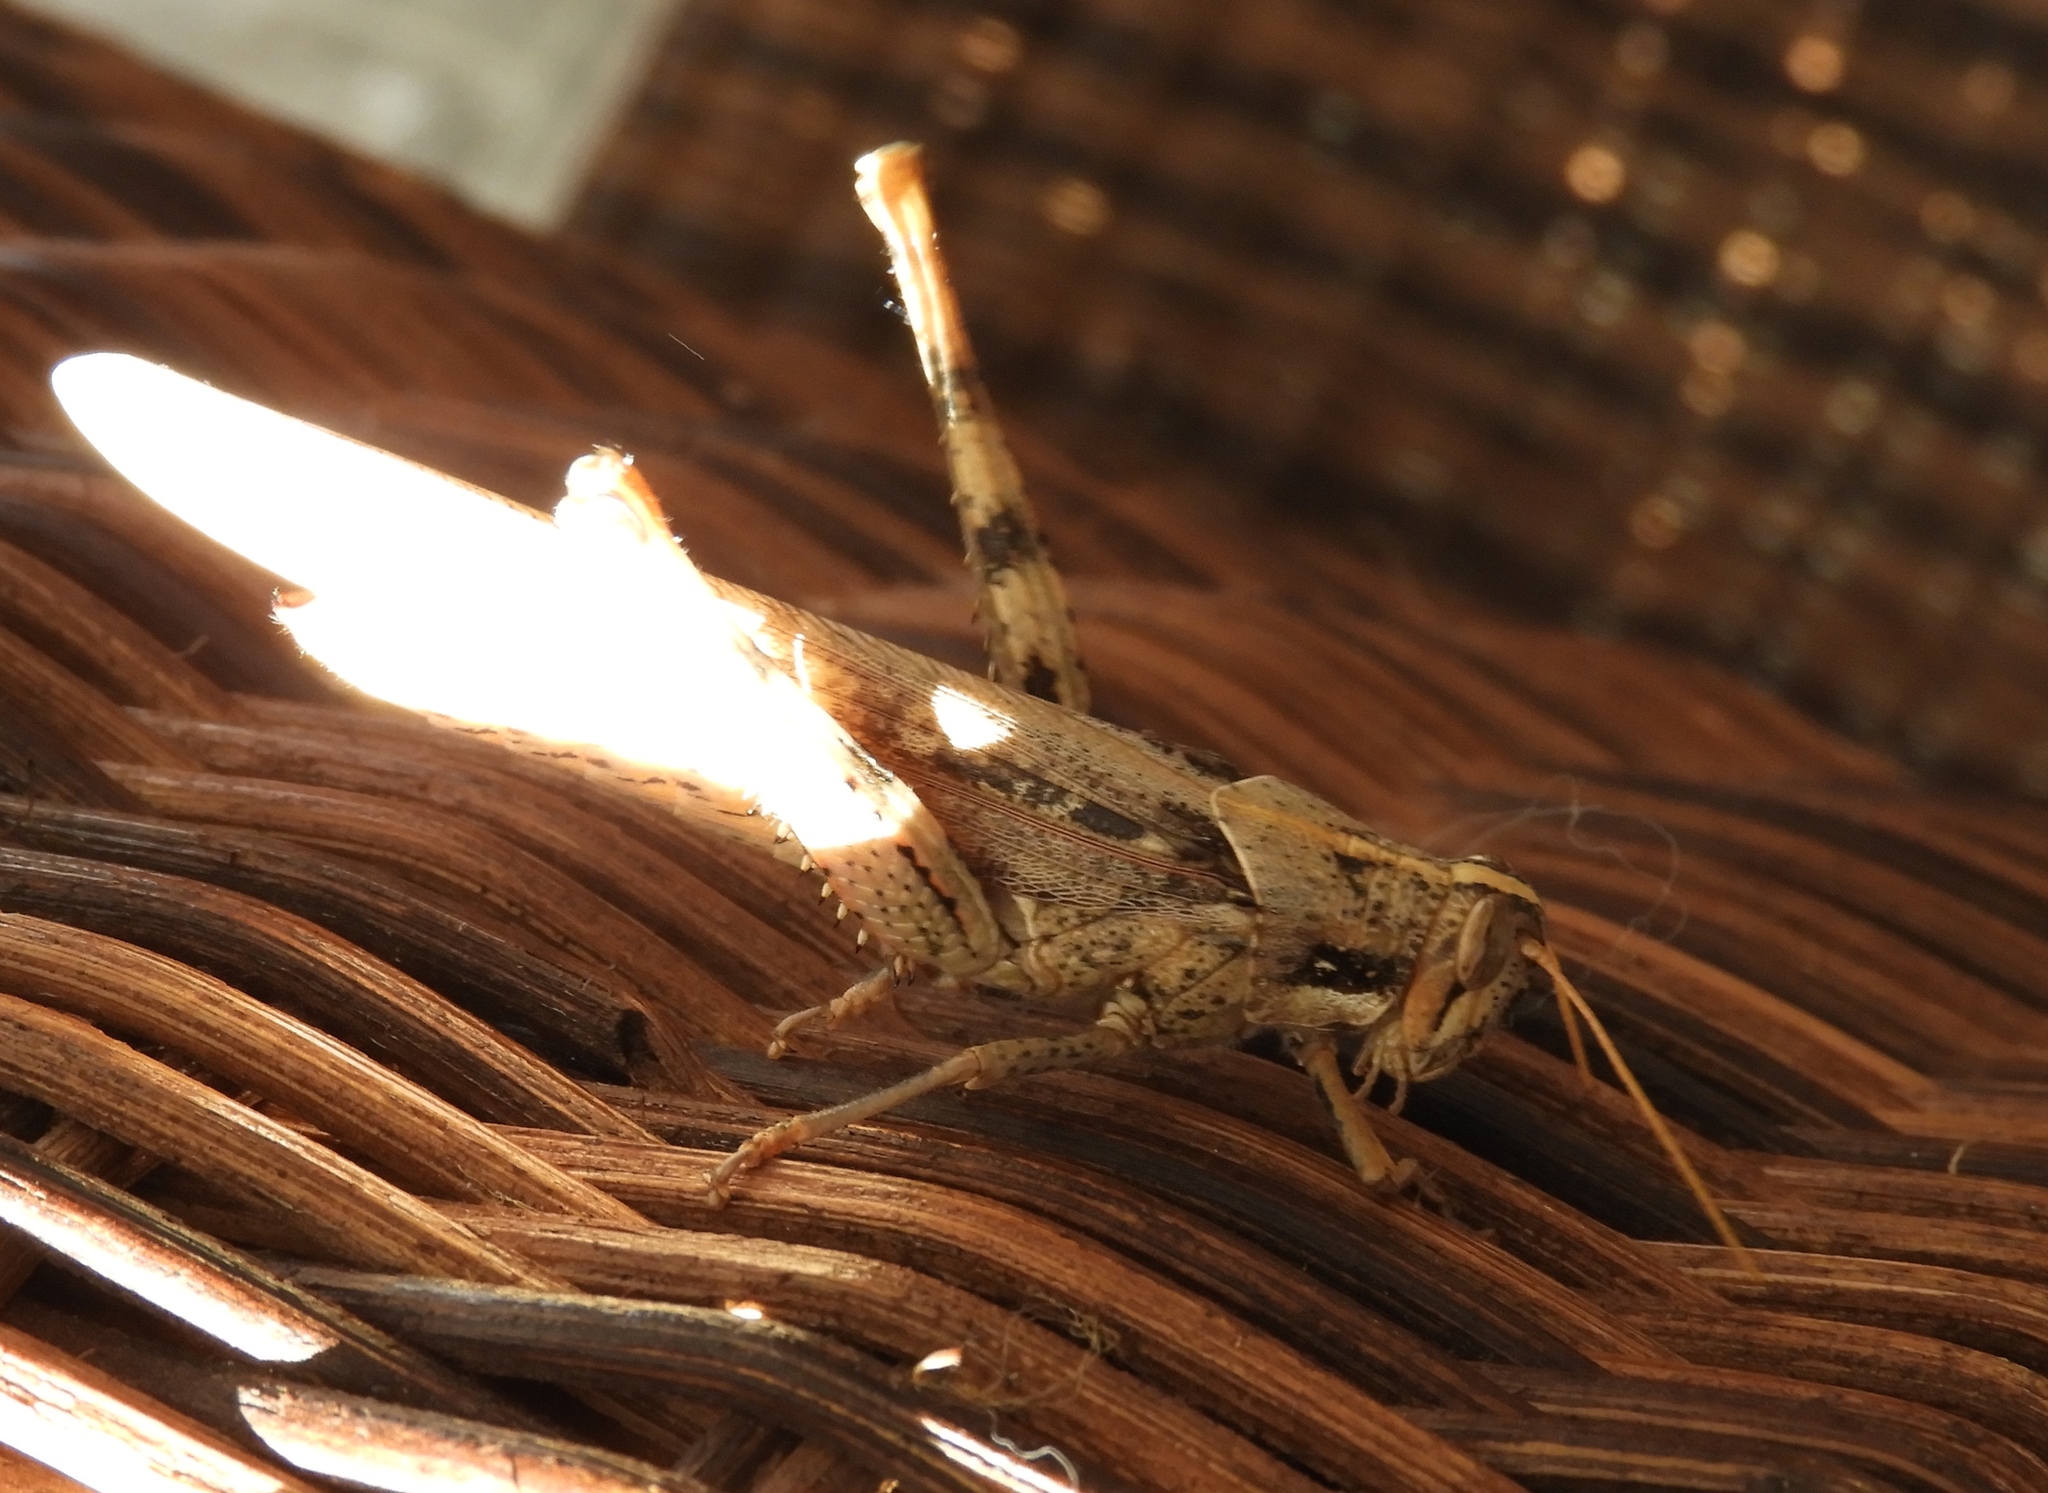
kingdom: Animalia
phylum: Arthropoda
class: Insecta
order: Orthoptera
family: Acrididae
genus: Schistocerca
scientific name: Schistocerca nitens
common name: Vagrant grasshopper
